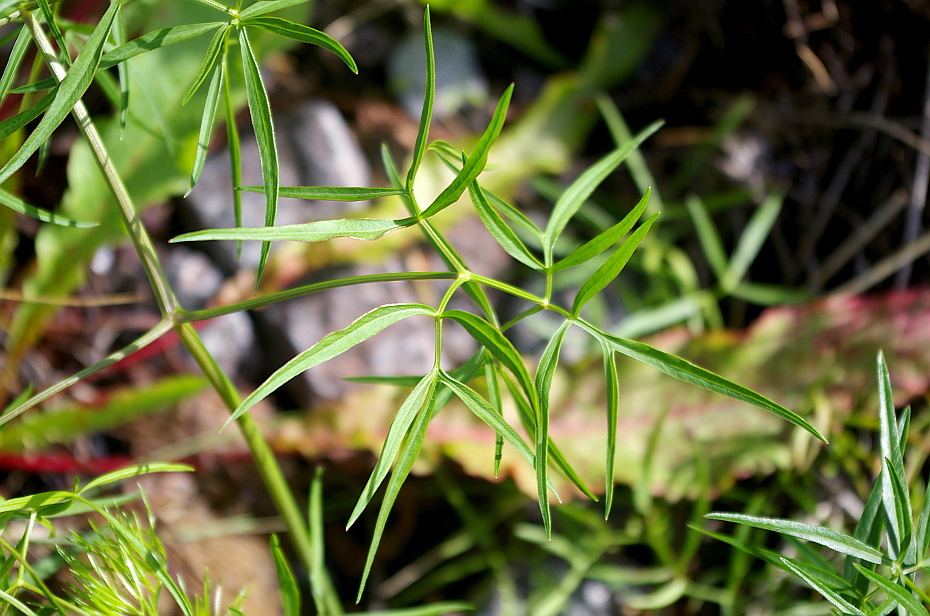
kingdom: Plantae
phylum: Tracheophyta
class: Magnoliopsida
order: Apiales
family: Apiaceae
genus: Cenolophium
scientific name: Cenolophium fischeri
